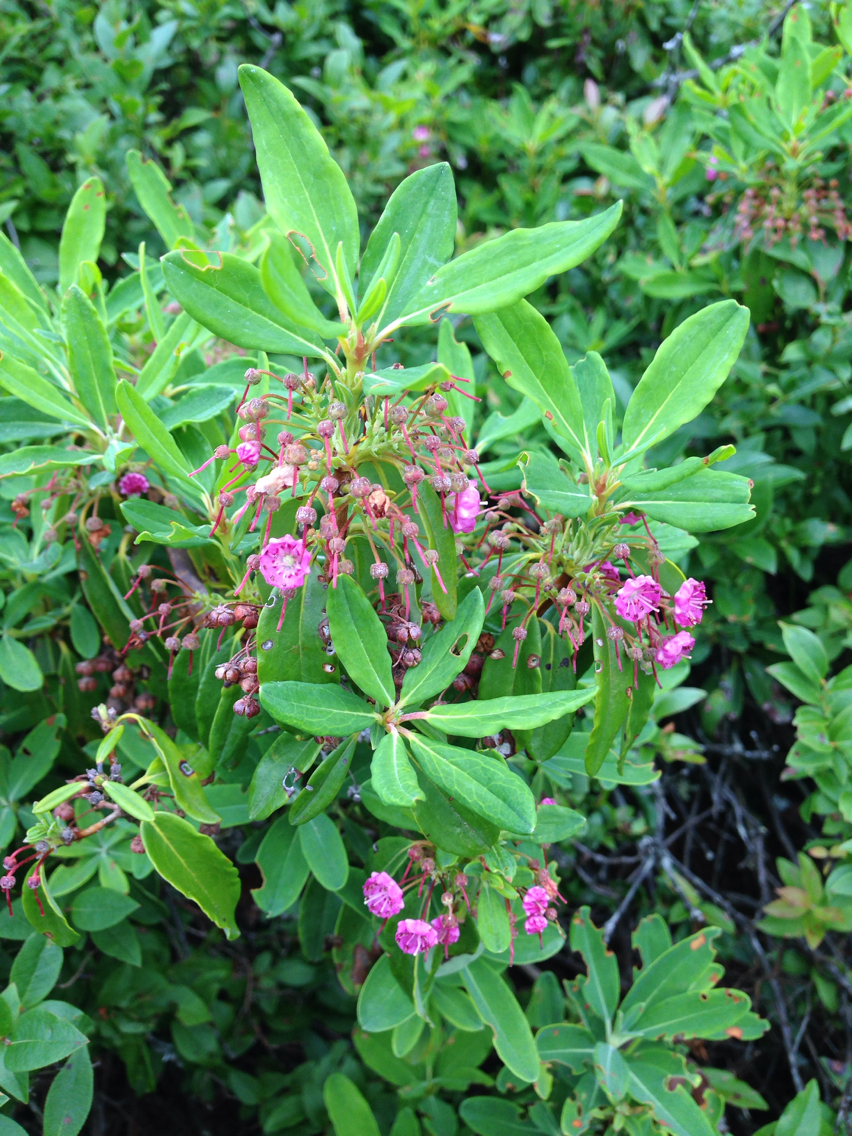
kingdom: Plantae
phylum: Tracheophyta
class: Magnoliopsida
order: Ericales
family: Ericaceae
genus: Kalmia
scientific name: Kalmia angustifolia
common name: Sheep-laurel
